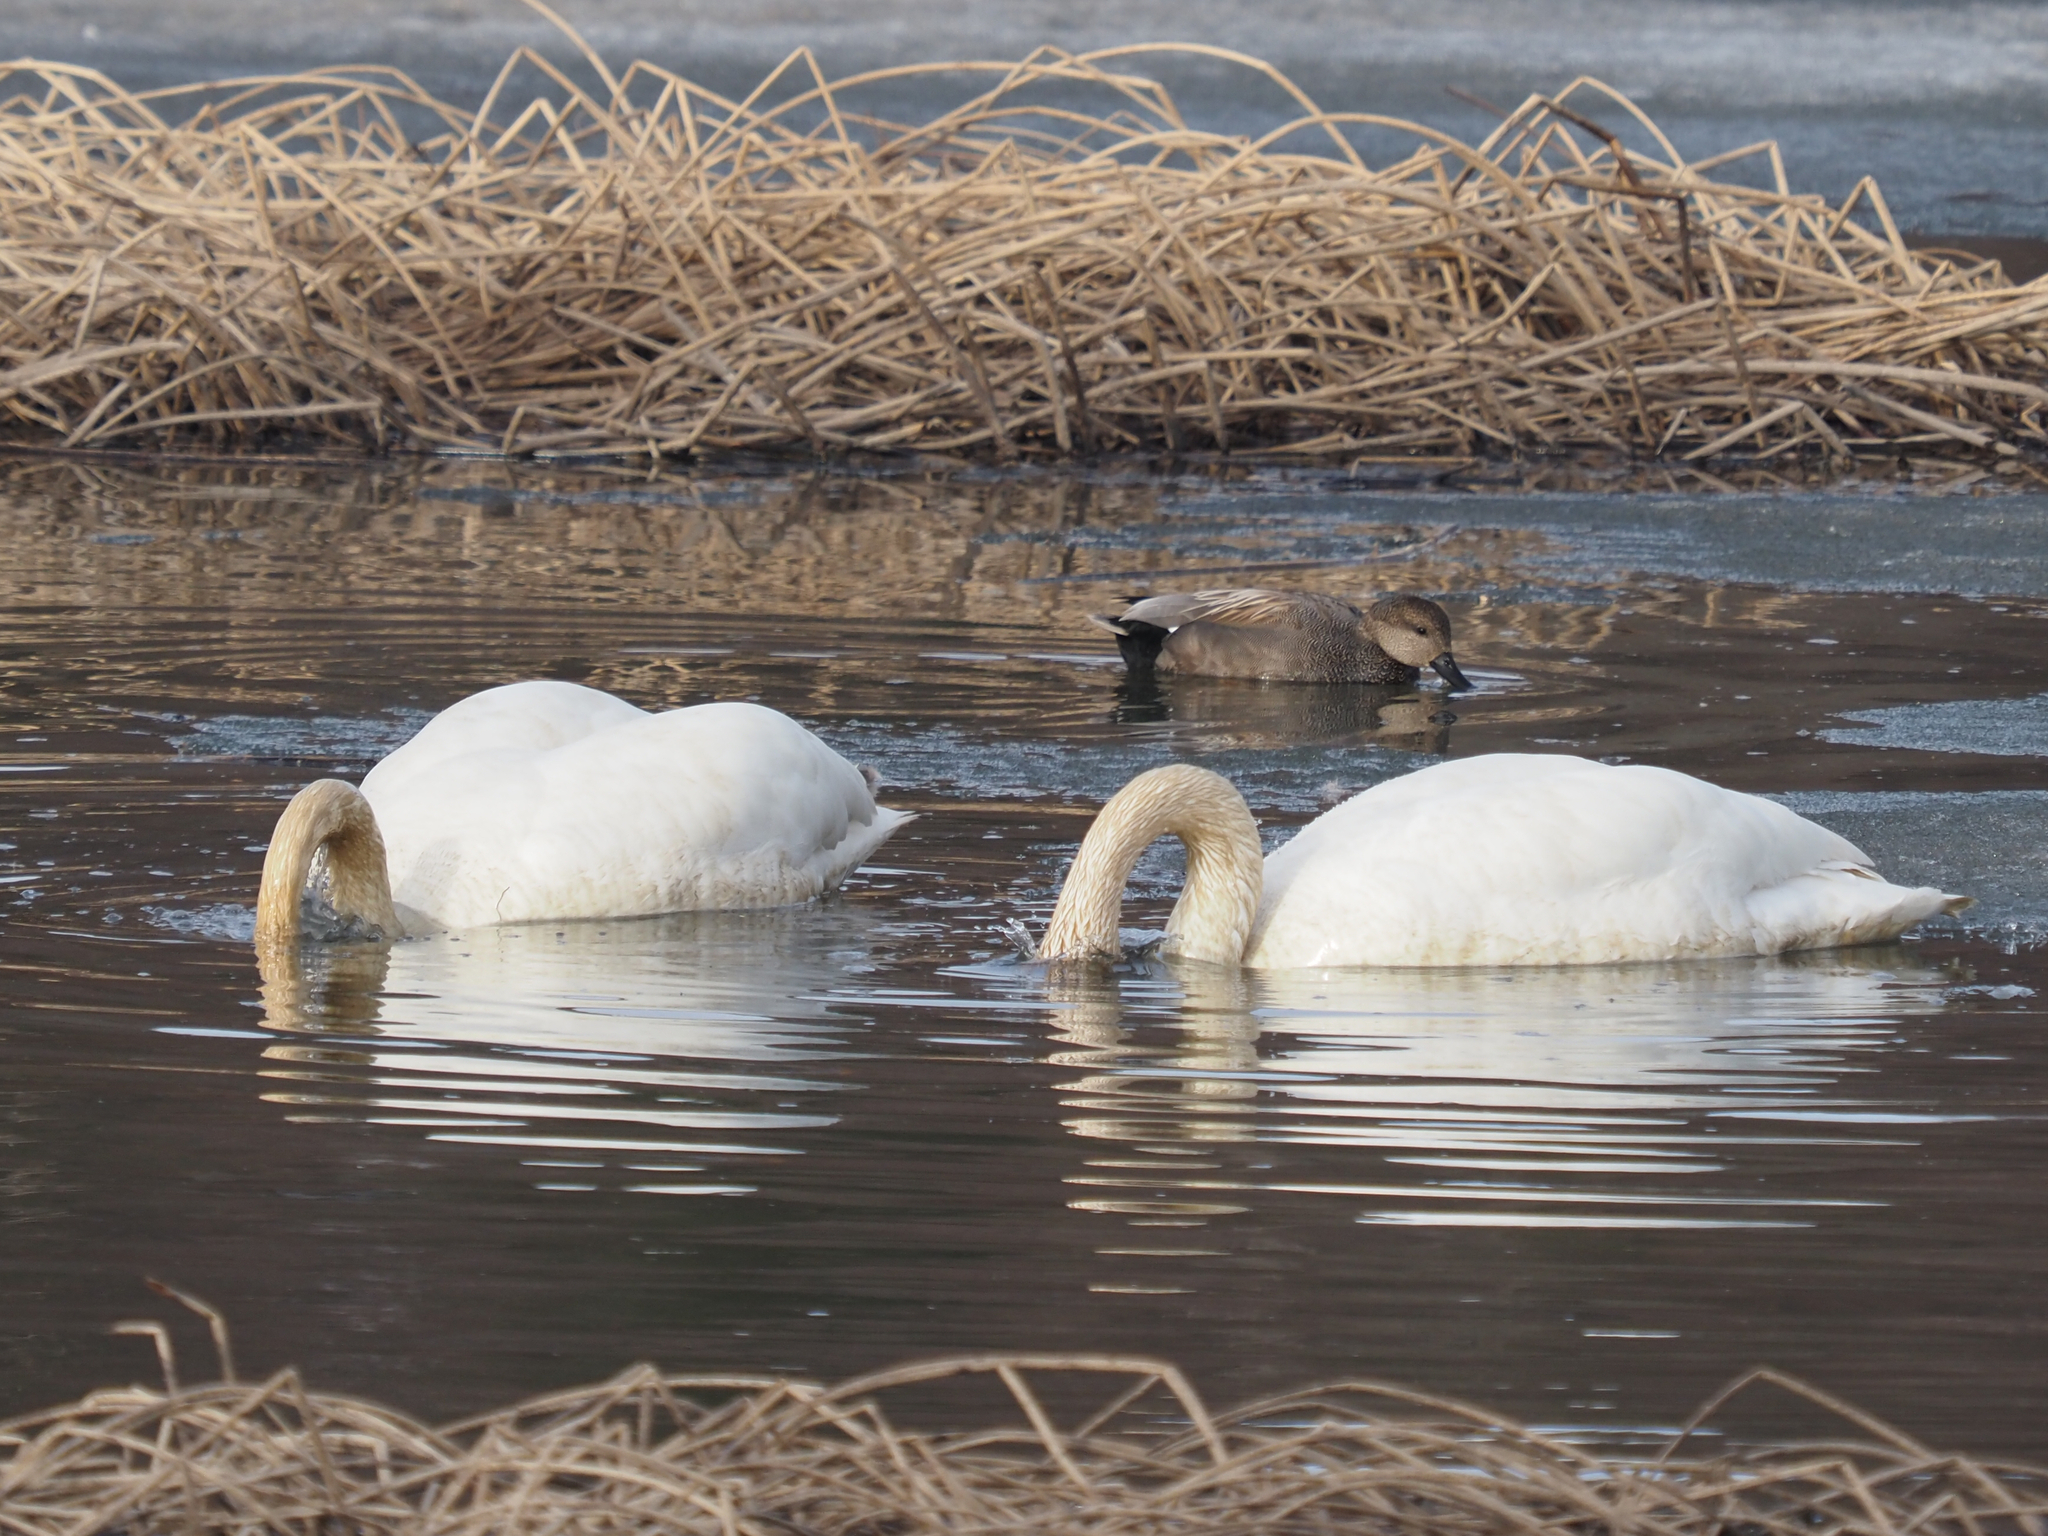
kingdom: Animalia
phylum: Chordata
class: Aves
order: Anseriformes
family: Anatidae
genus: Cygnus
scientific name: Cygnus buccinator
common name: Trumpeter swan
